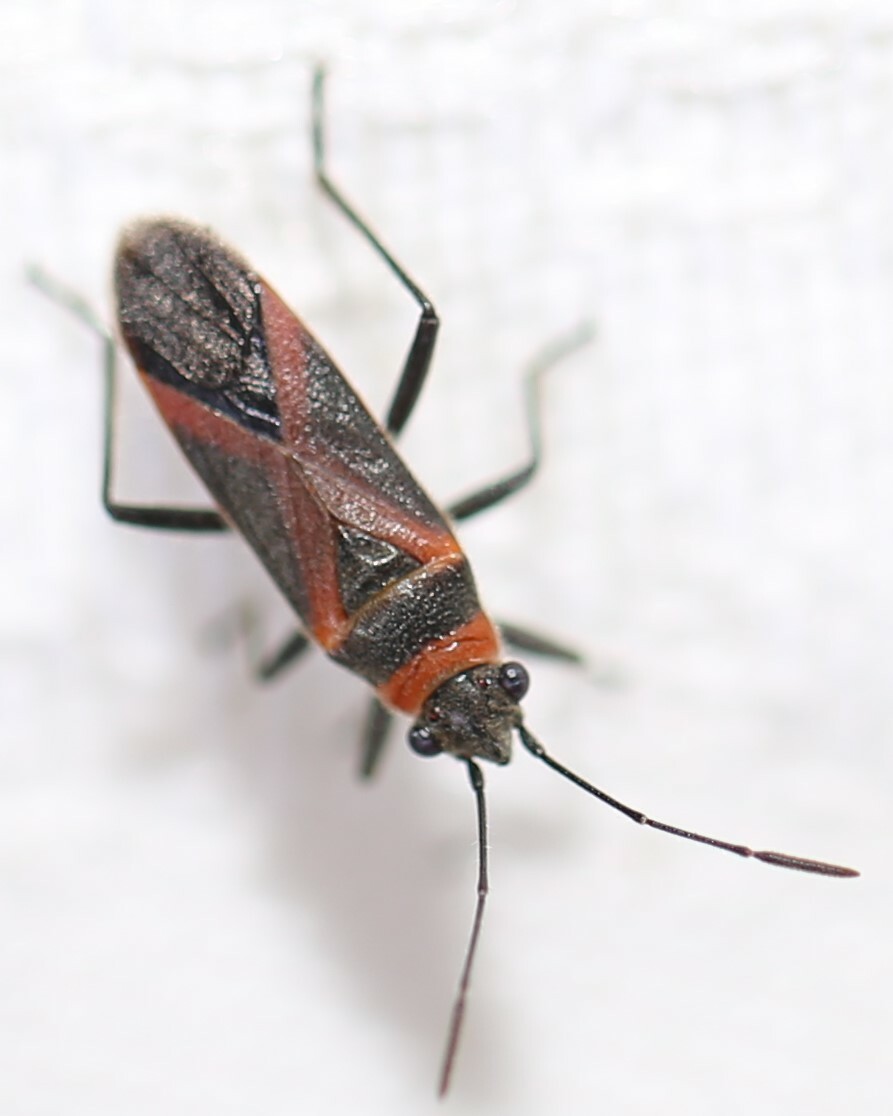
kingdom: Animalia
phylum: Arthropoda
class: Insecta
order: Hemiptera
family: Lygaeidae
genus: Arocatus
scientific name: Arocatus rusticus
